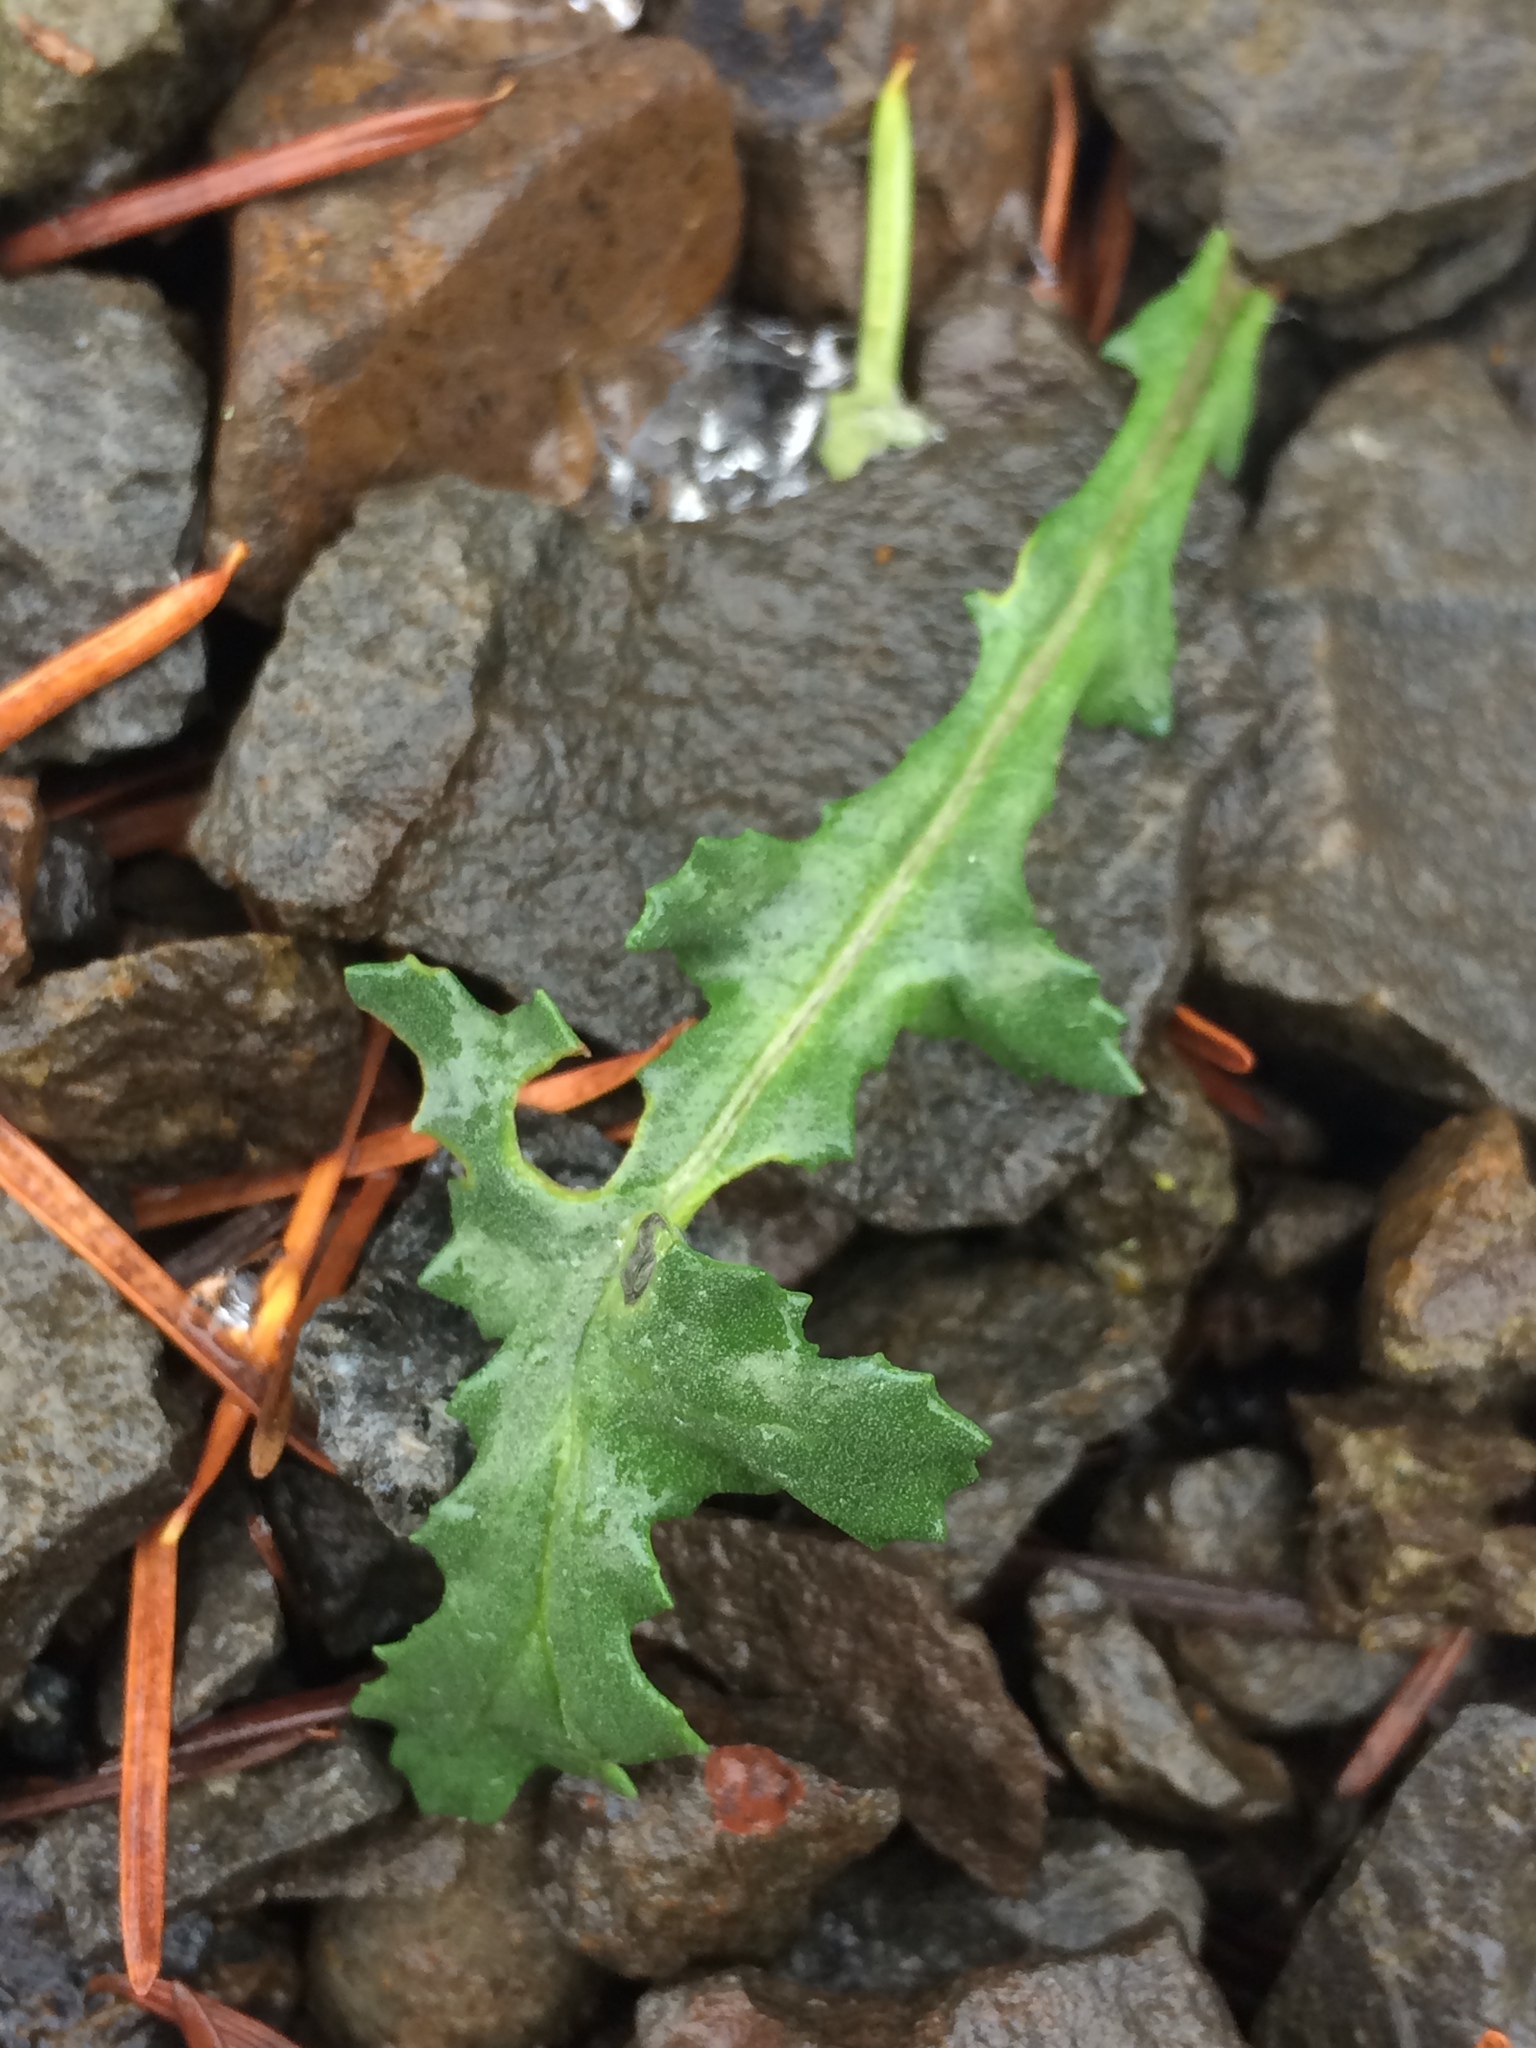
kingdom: Plantae
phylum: Tracheophyta
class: Magnoliopsida
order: Asterales
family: Asteraceae
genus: Senecio
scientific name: Senecio vulgaris
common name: Old-man-in-the-spring
